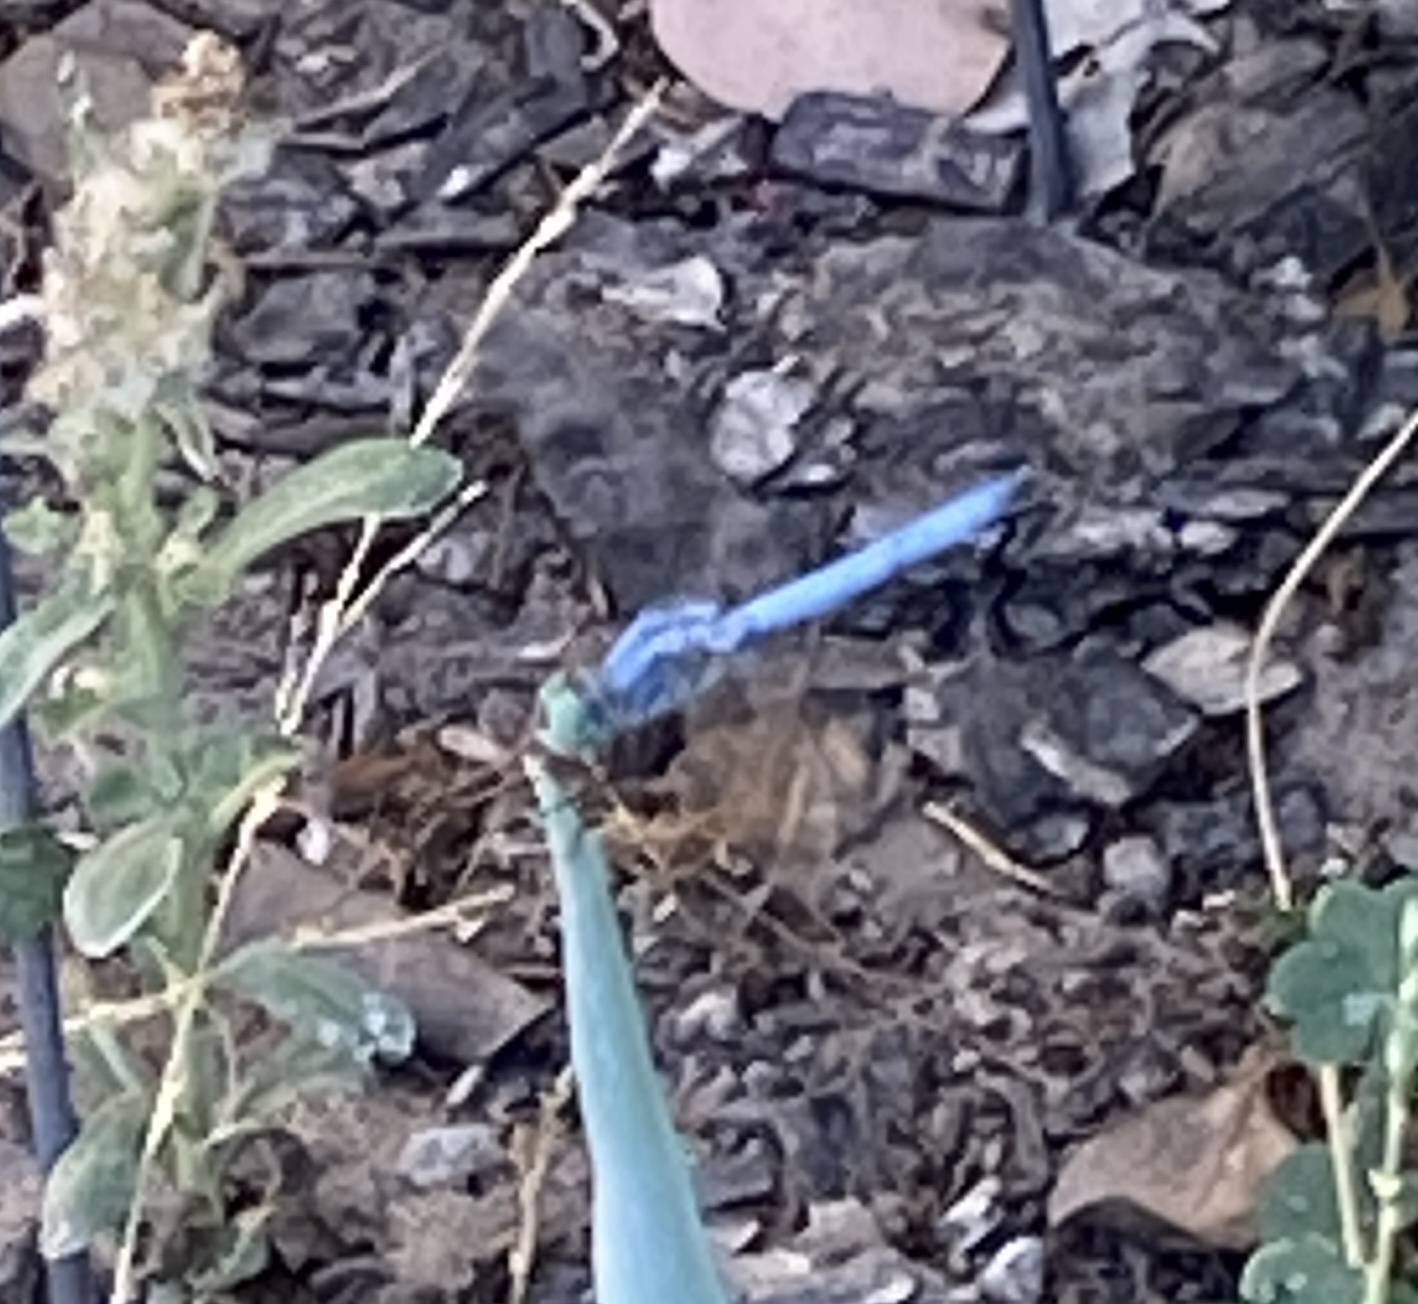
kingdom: Animalia
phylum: Arthropoda
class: Insecta
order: Odonata
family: Libellulidae
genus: Pachydiplax
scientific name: Pachydiplax longipennis
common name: Blue dasher
